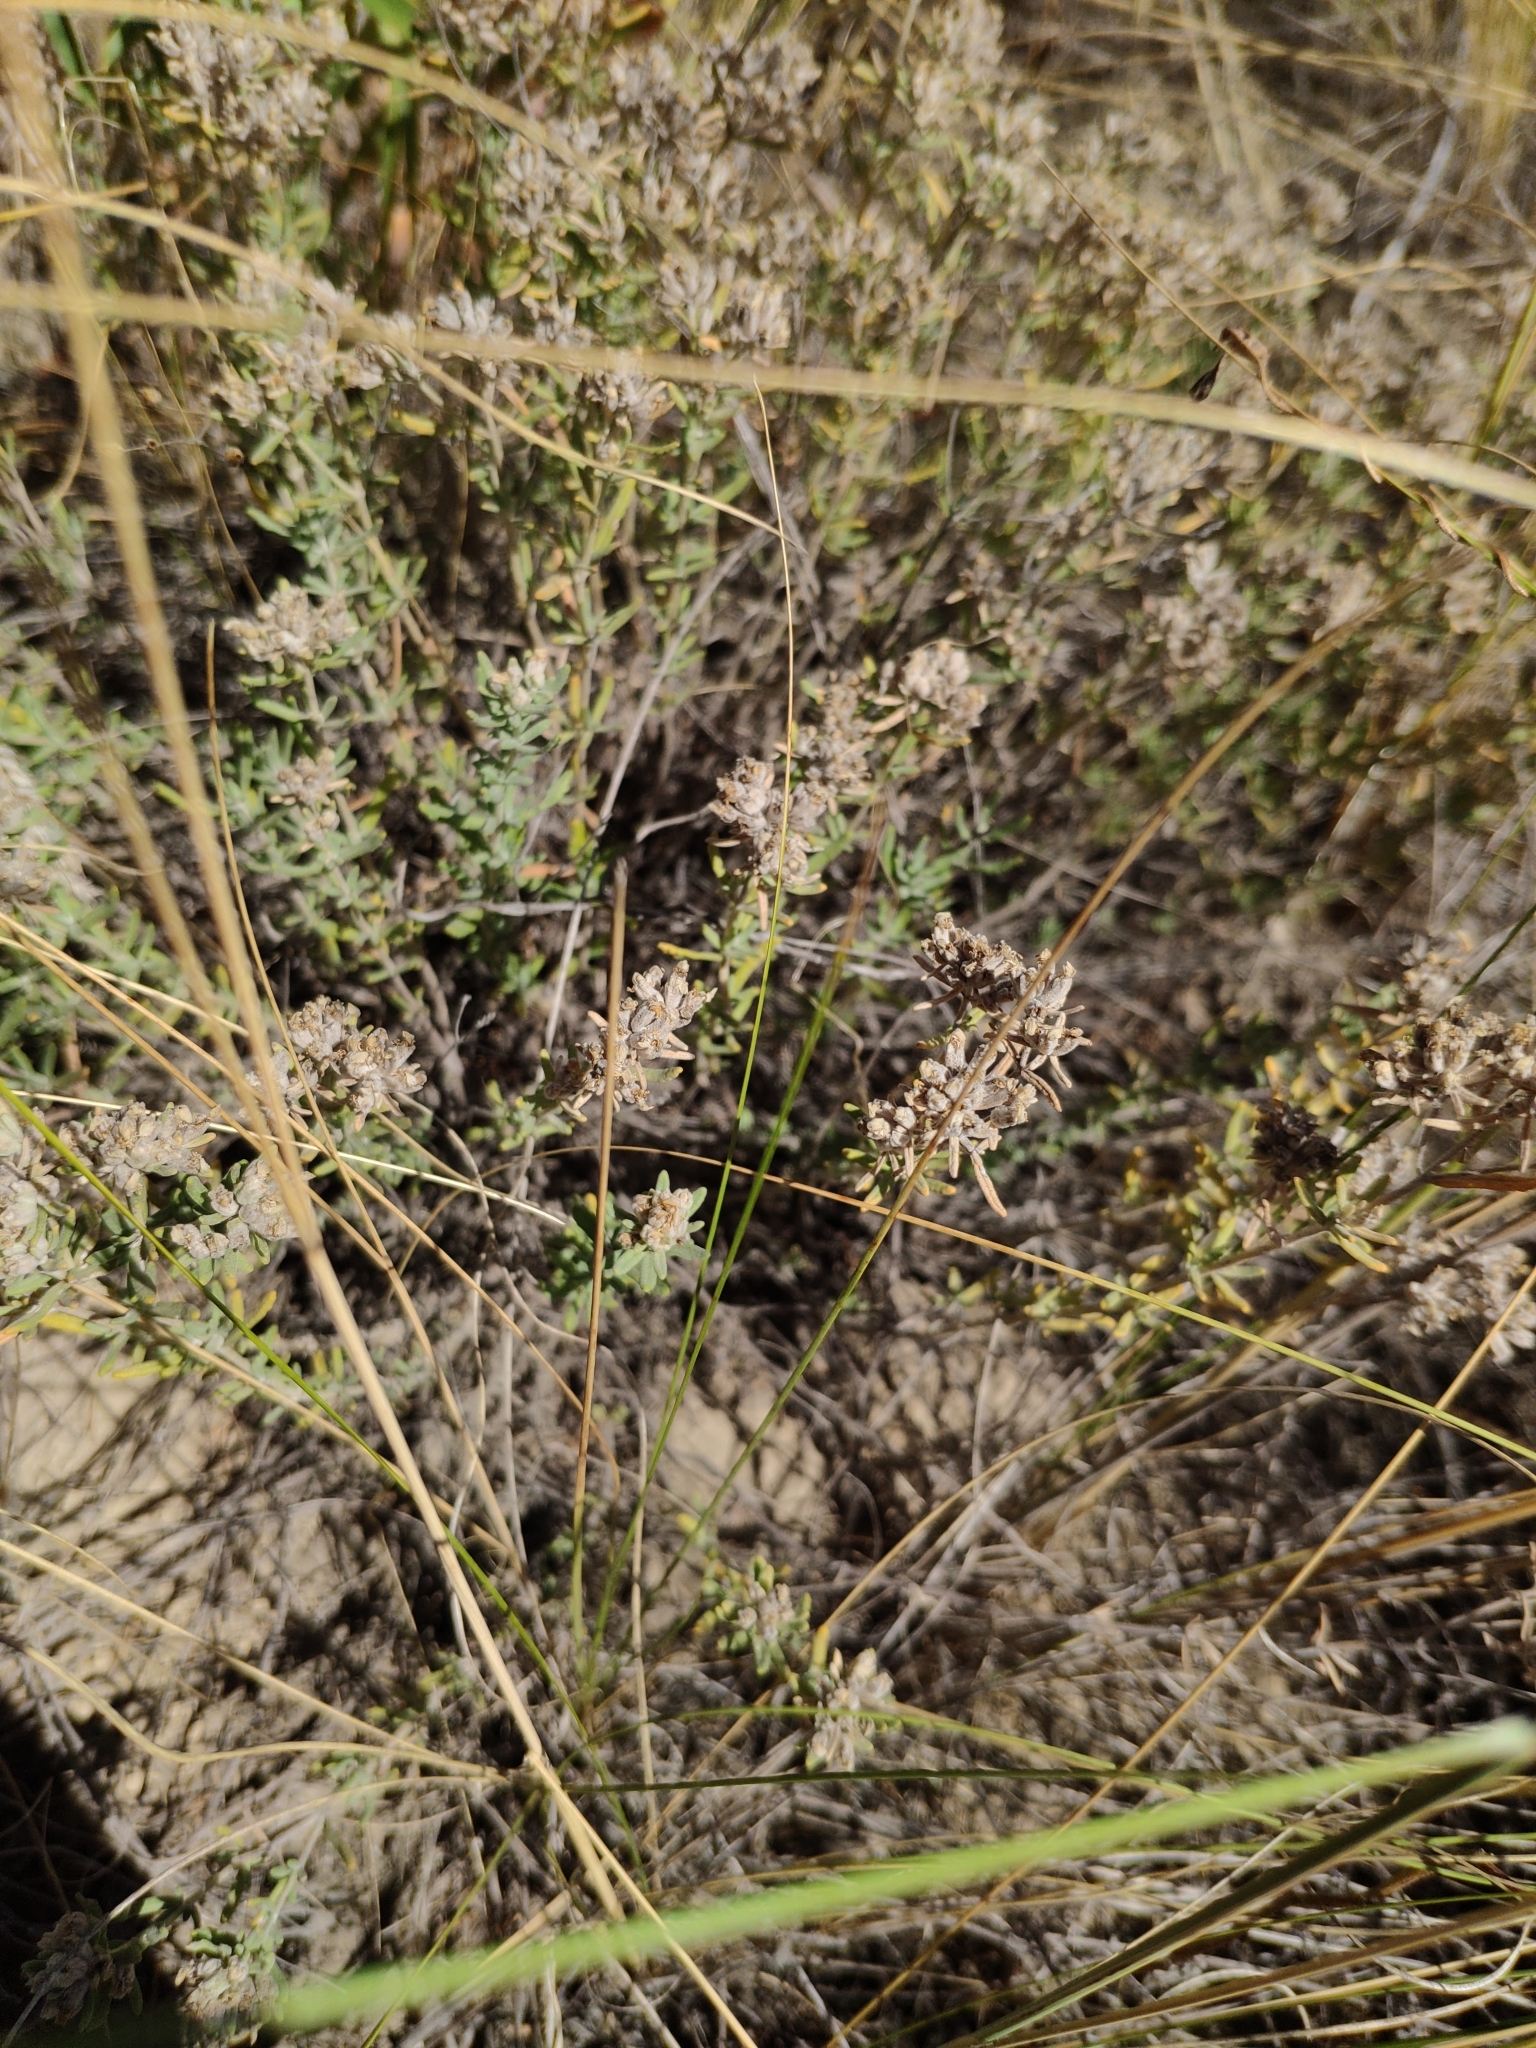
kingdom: Plantae
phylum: Tracheophyta
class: Magnoliopsida
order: Lamiales
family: Lamiaceae
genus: Teucrium
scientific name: Teucrium polium
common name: Poley
